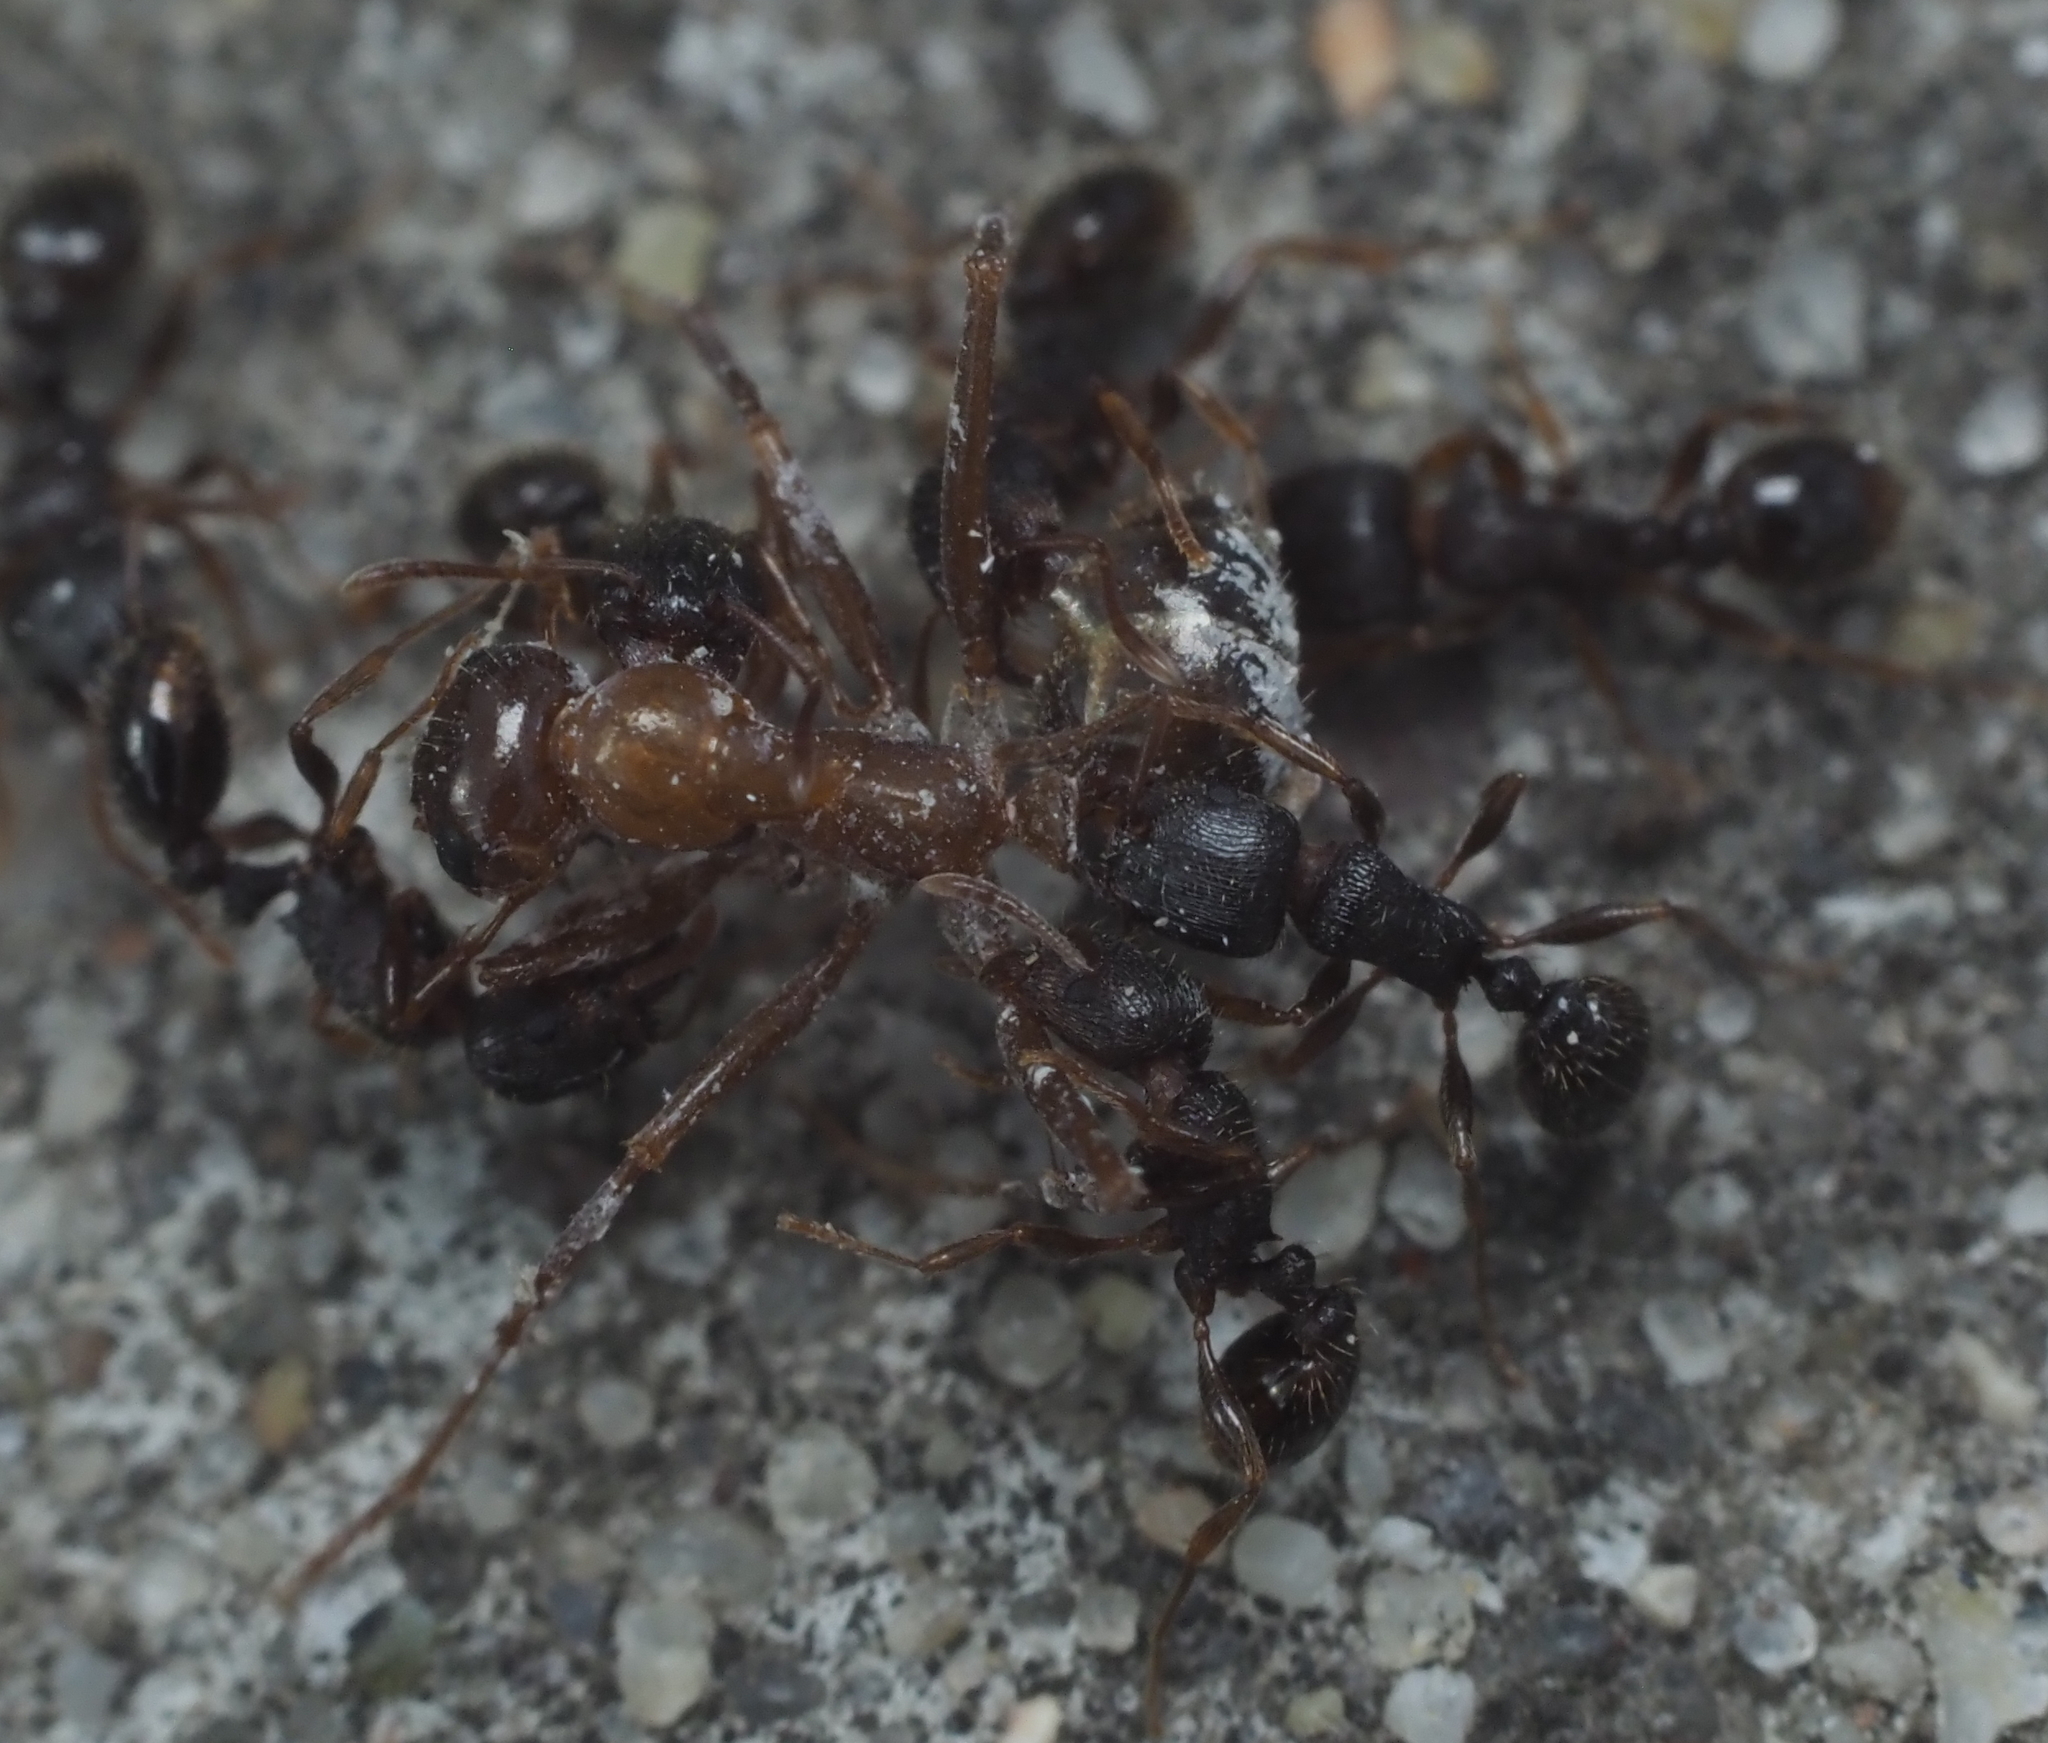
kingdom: Animalia
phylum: Arthropoda
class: Insecta
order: Hymenoptera
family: Formicidae
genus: Tetramorium
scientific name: Tetramorium immigrans
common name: Pavement ant
